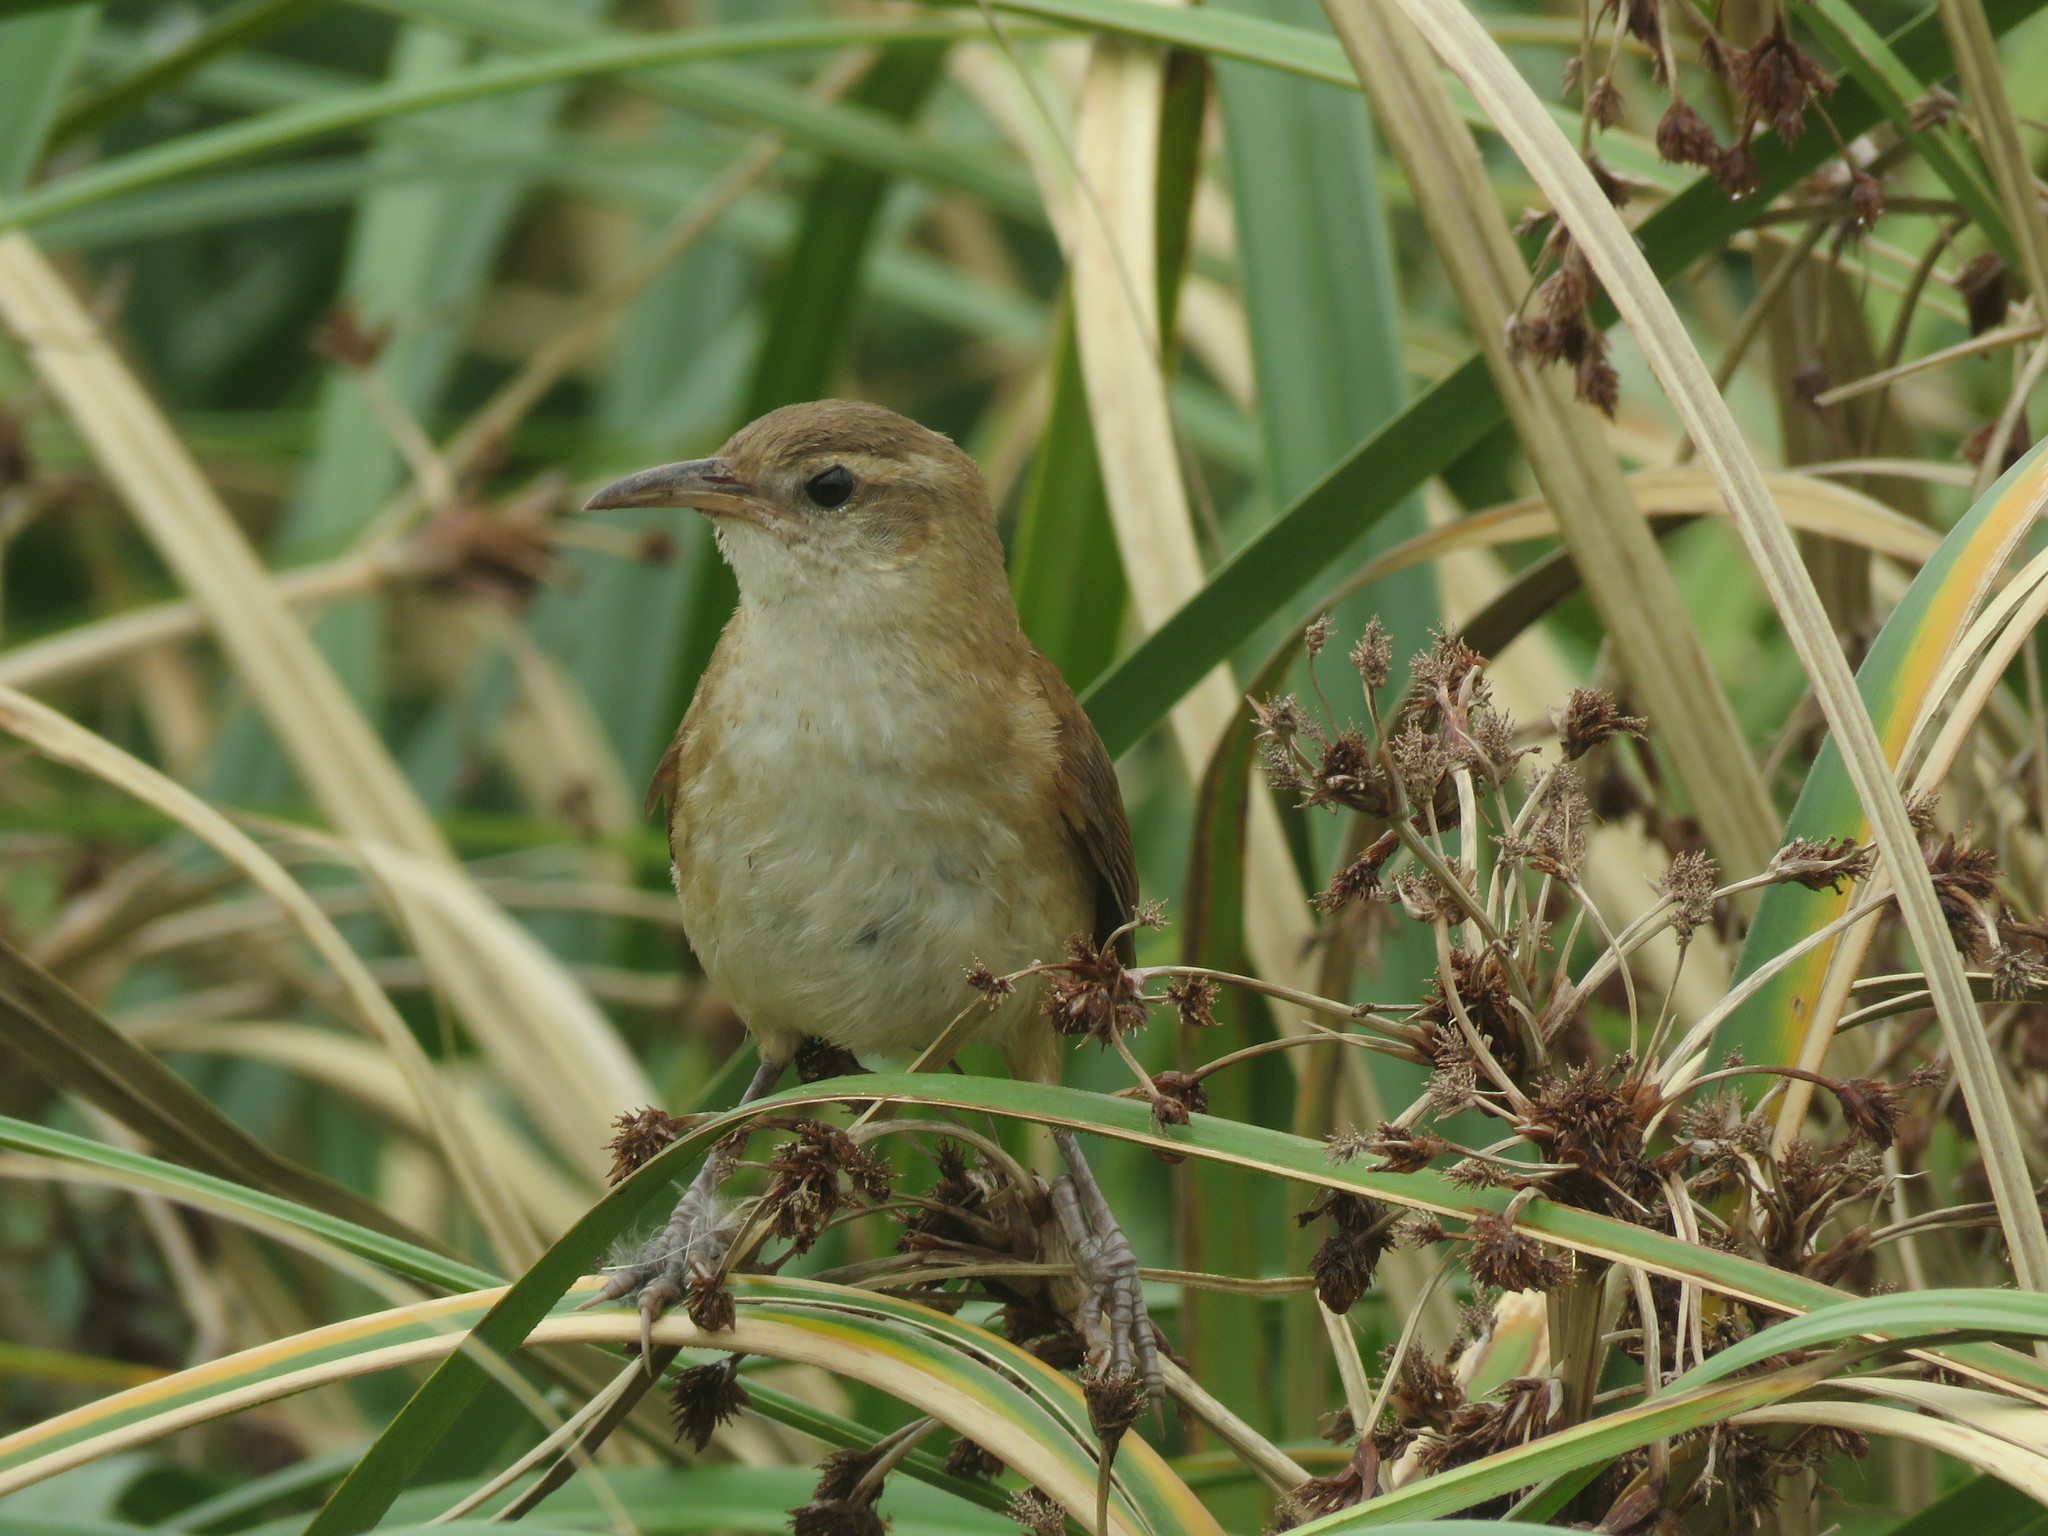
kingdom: Animalia
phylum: Chordata
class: Aves
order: Passeriformes
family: Furnariidae
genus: Limnornis
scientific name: Limnornis curvirostris
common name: Curve-billed reedhaunter
